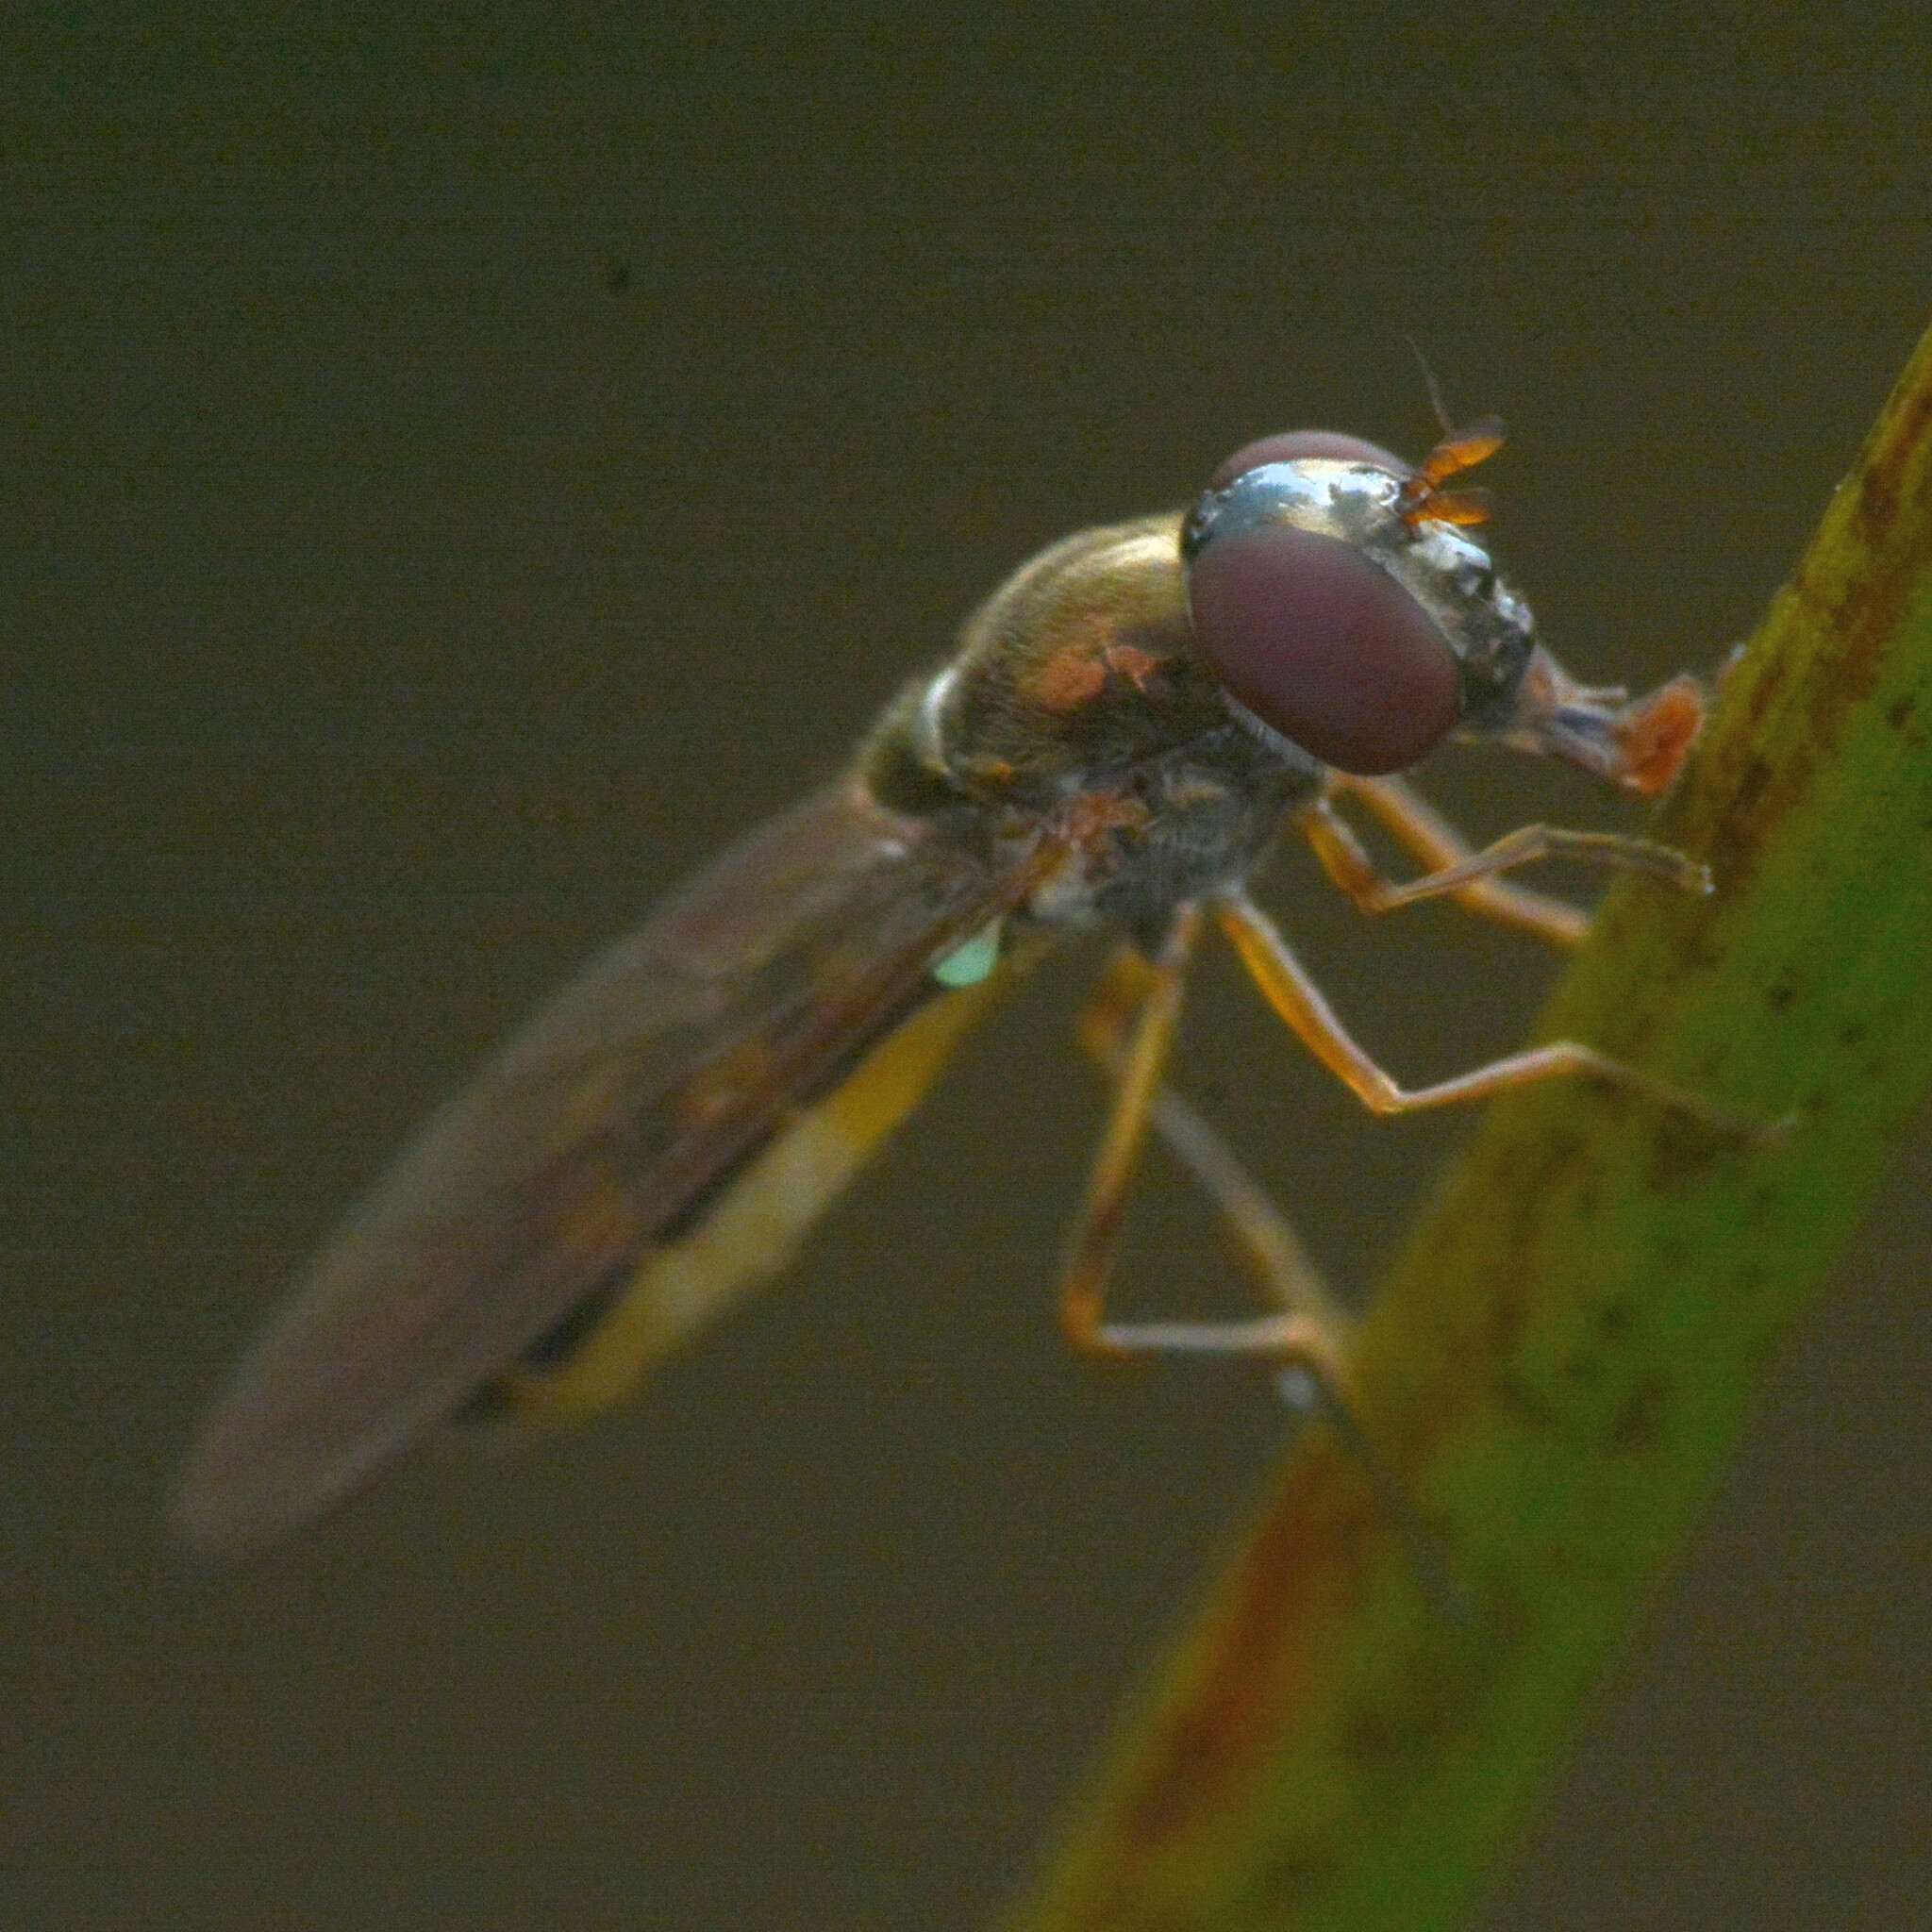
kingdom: Animalia
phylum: Arthropoda
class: Insecta
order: Diptera
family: Syrphidae
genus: Melanostoma
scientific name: Melanostoma scalare
